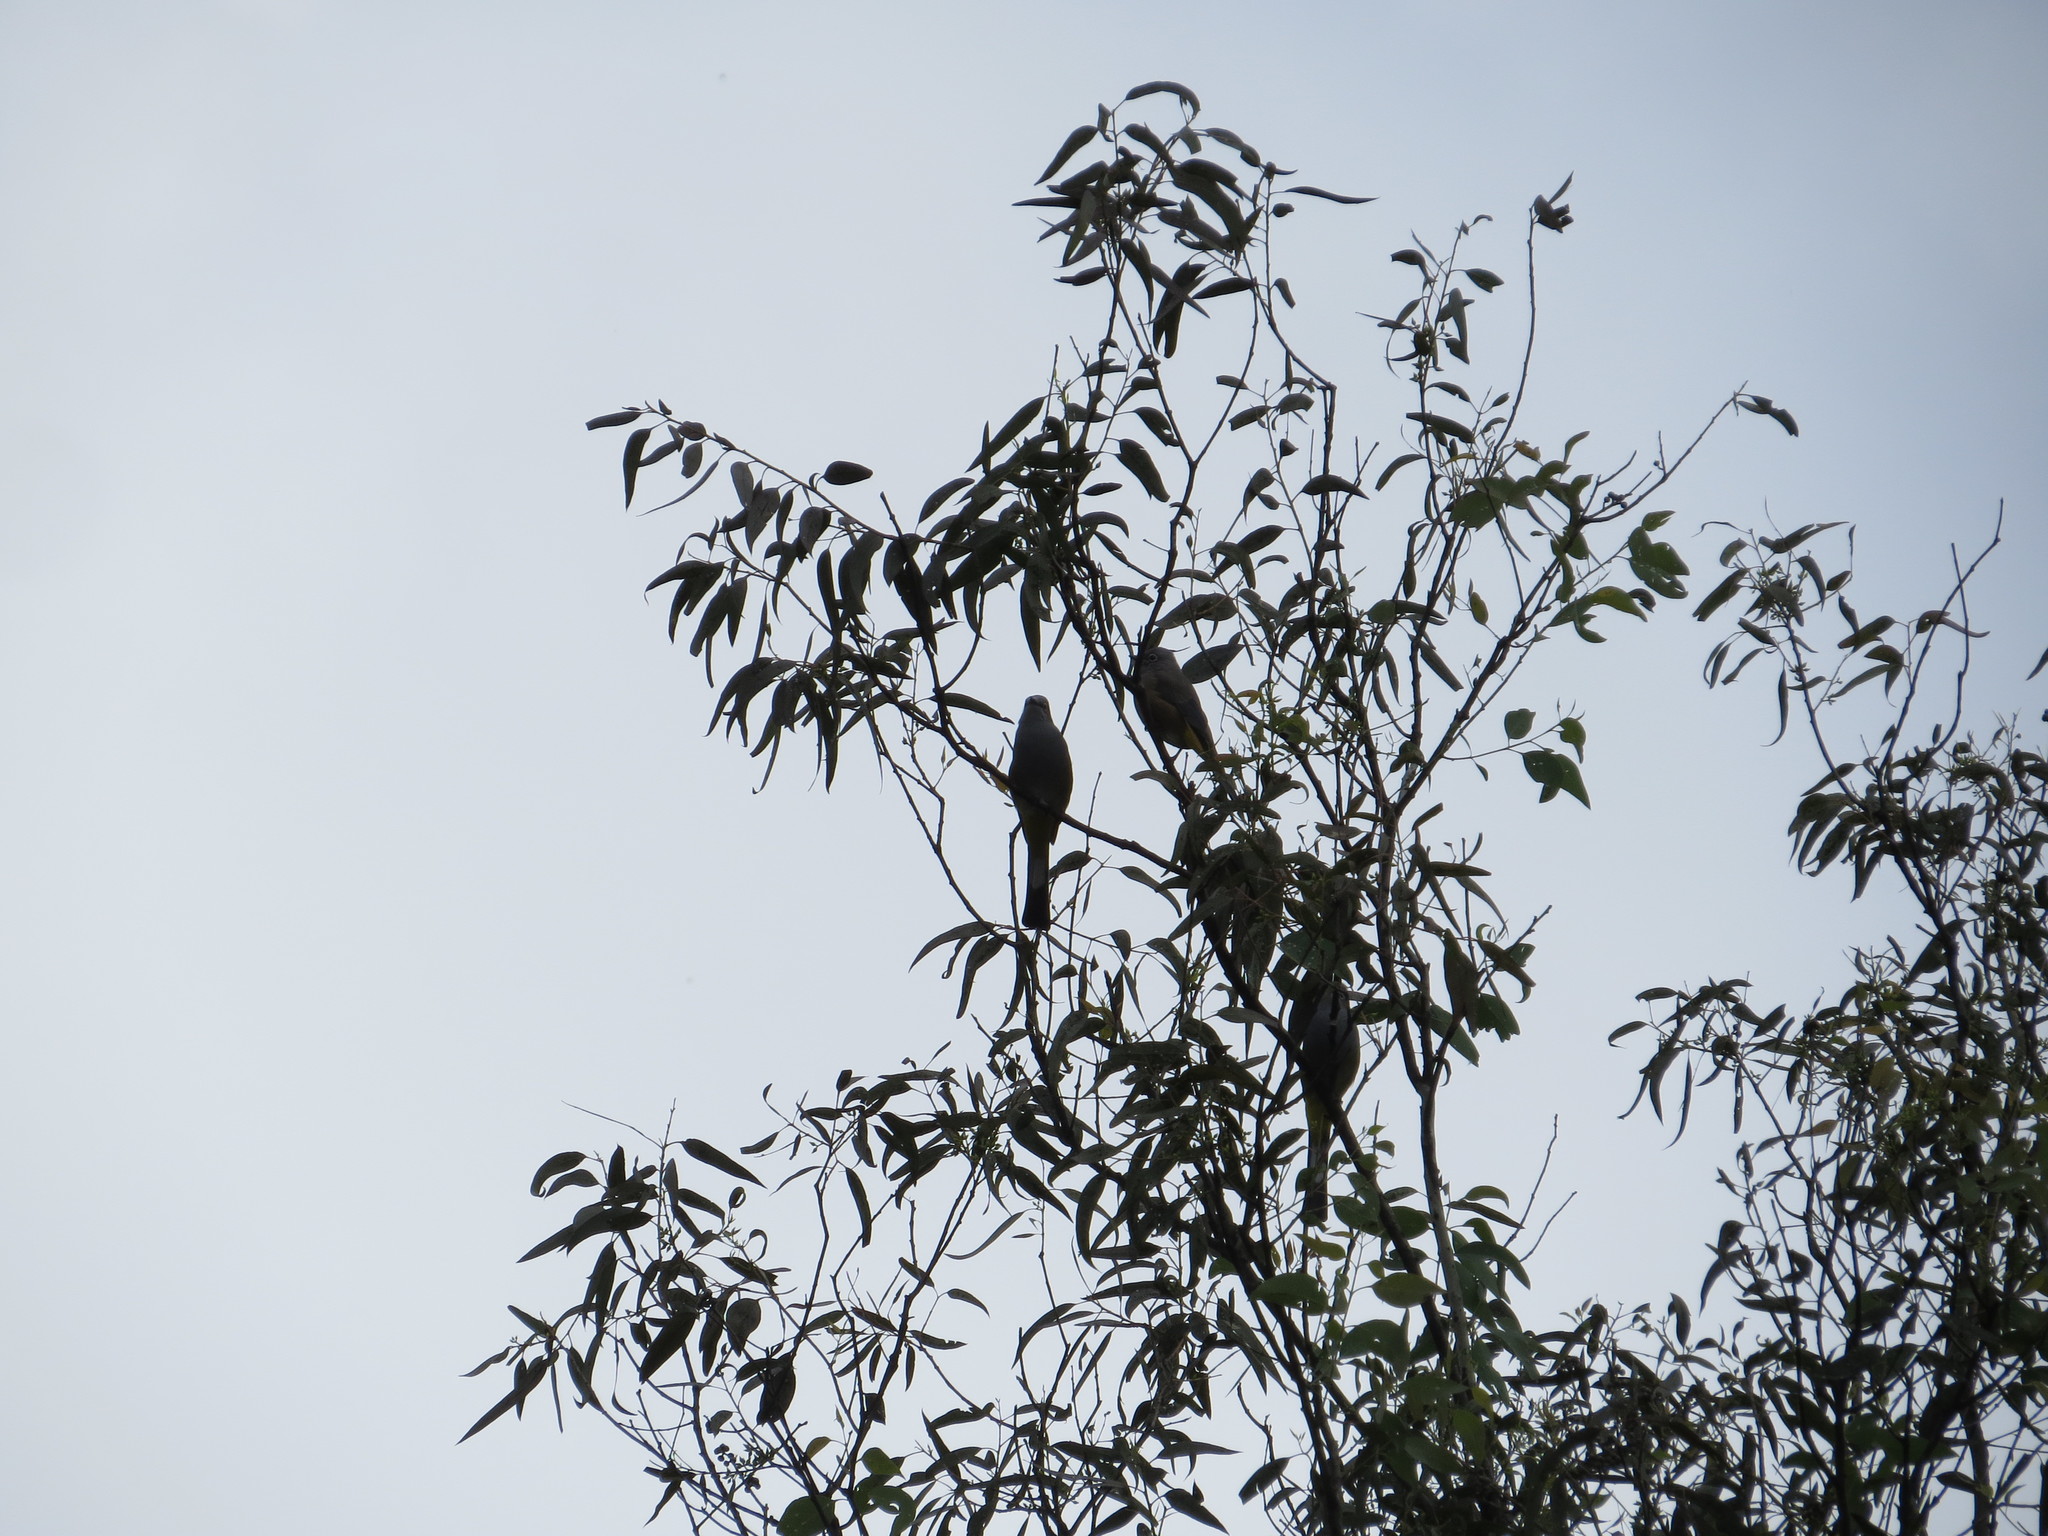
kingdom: Animalia
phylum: Chordata
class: Aves
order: Passeriformes
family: Ptilogonatidae
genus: Ptilogonys
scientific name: Ptilogonys cinereus
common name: Gray silky-flycatcher
